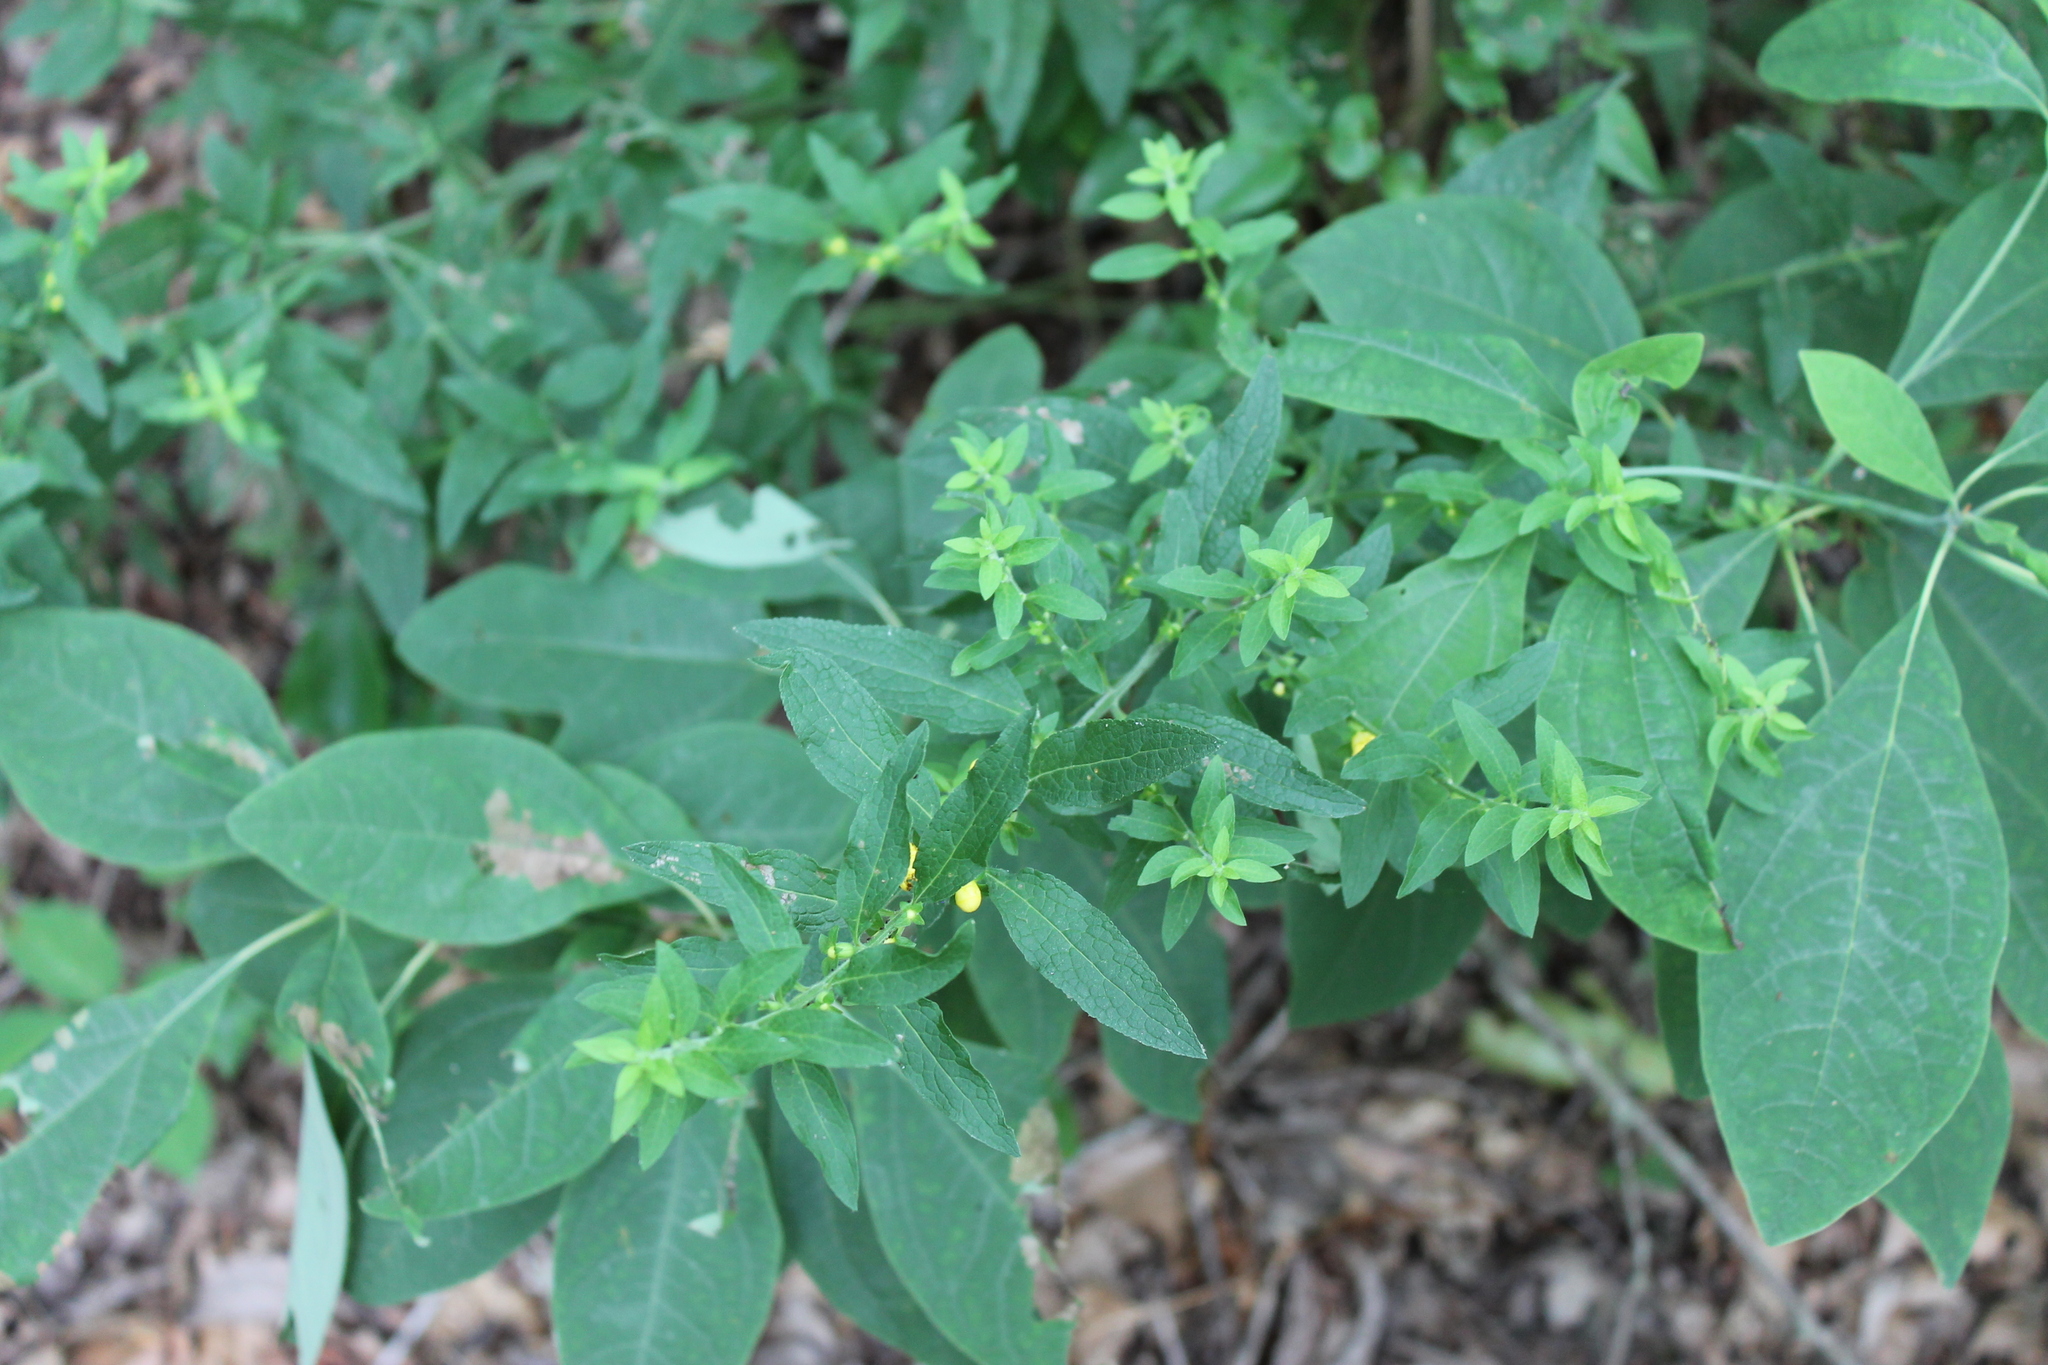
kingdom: Plantae
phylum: Tracheophyta
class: Magnoliopsida
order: Lamiales
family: Orobanchaceae
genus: Dasistoma
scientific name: Dasistoma macrophyllum
